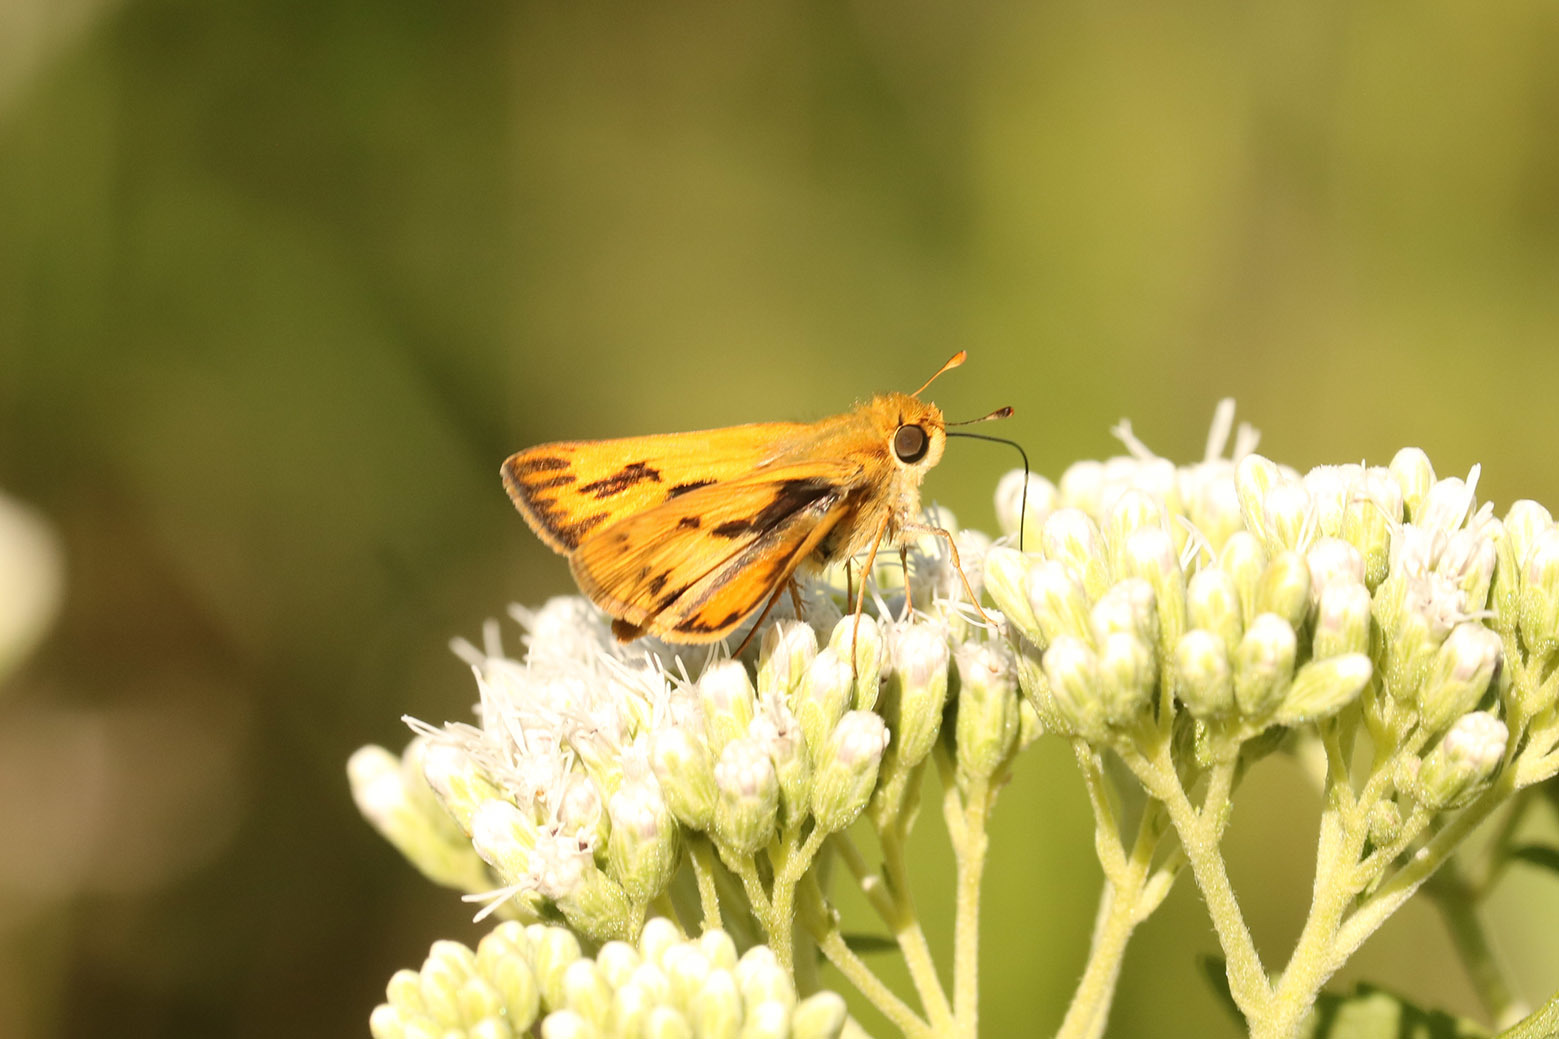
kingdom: Animalia
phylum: Arthropoda
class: Insecta
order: Lepidoptera
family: Hesperiidae
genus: Hylephila
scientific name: Hylephila phyleus
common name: Fiery skipper
